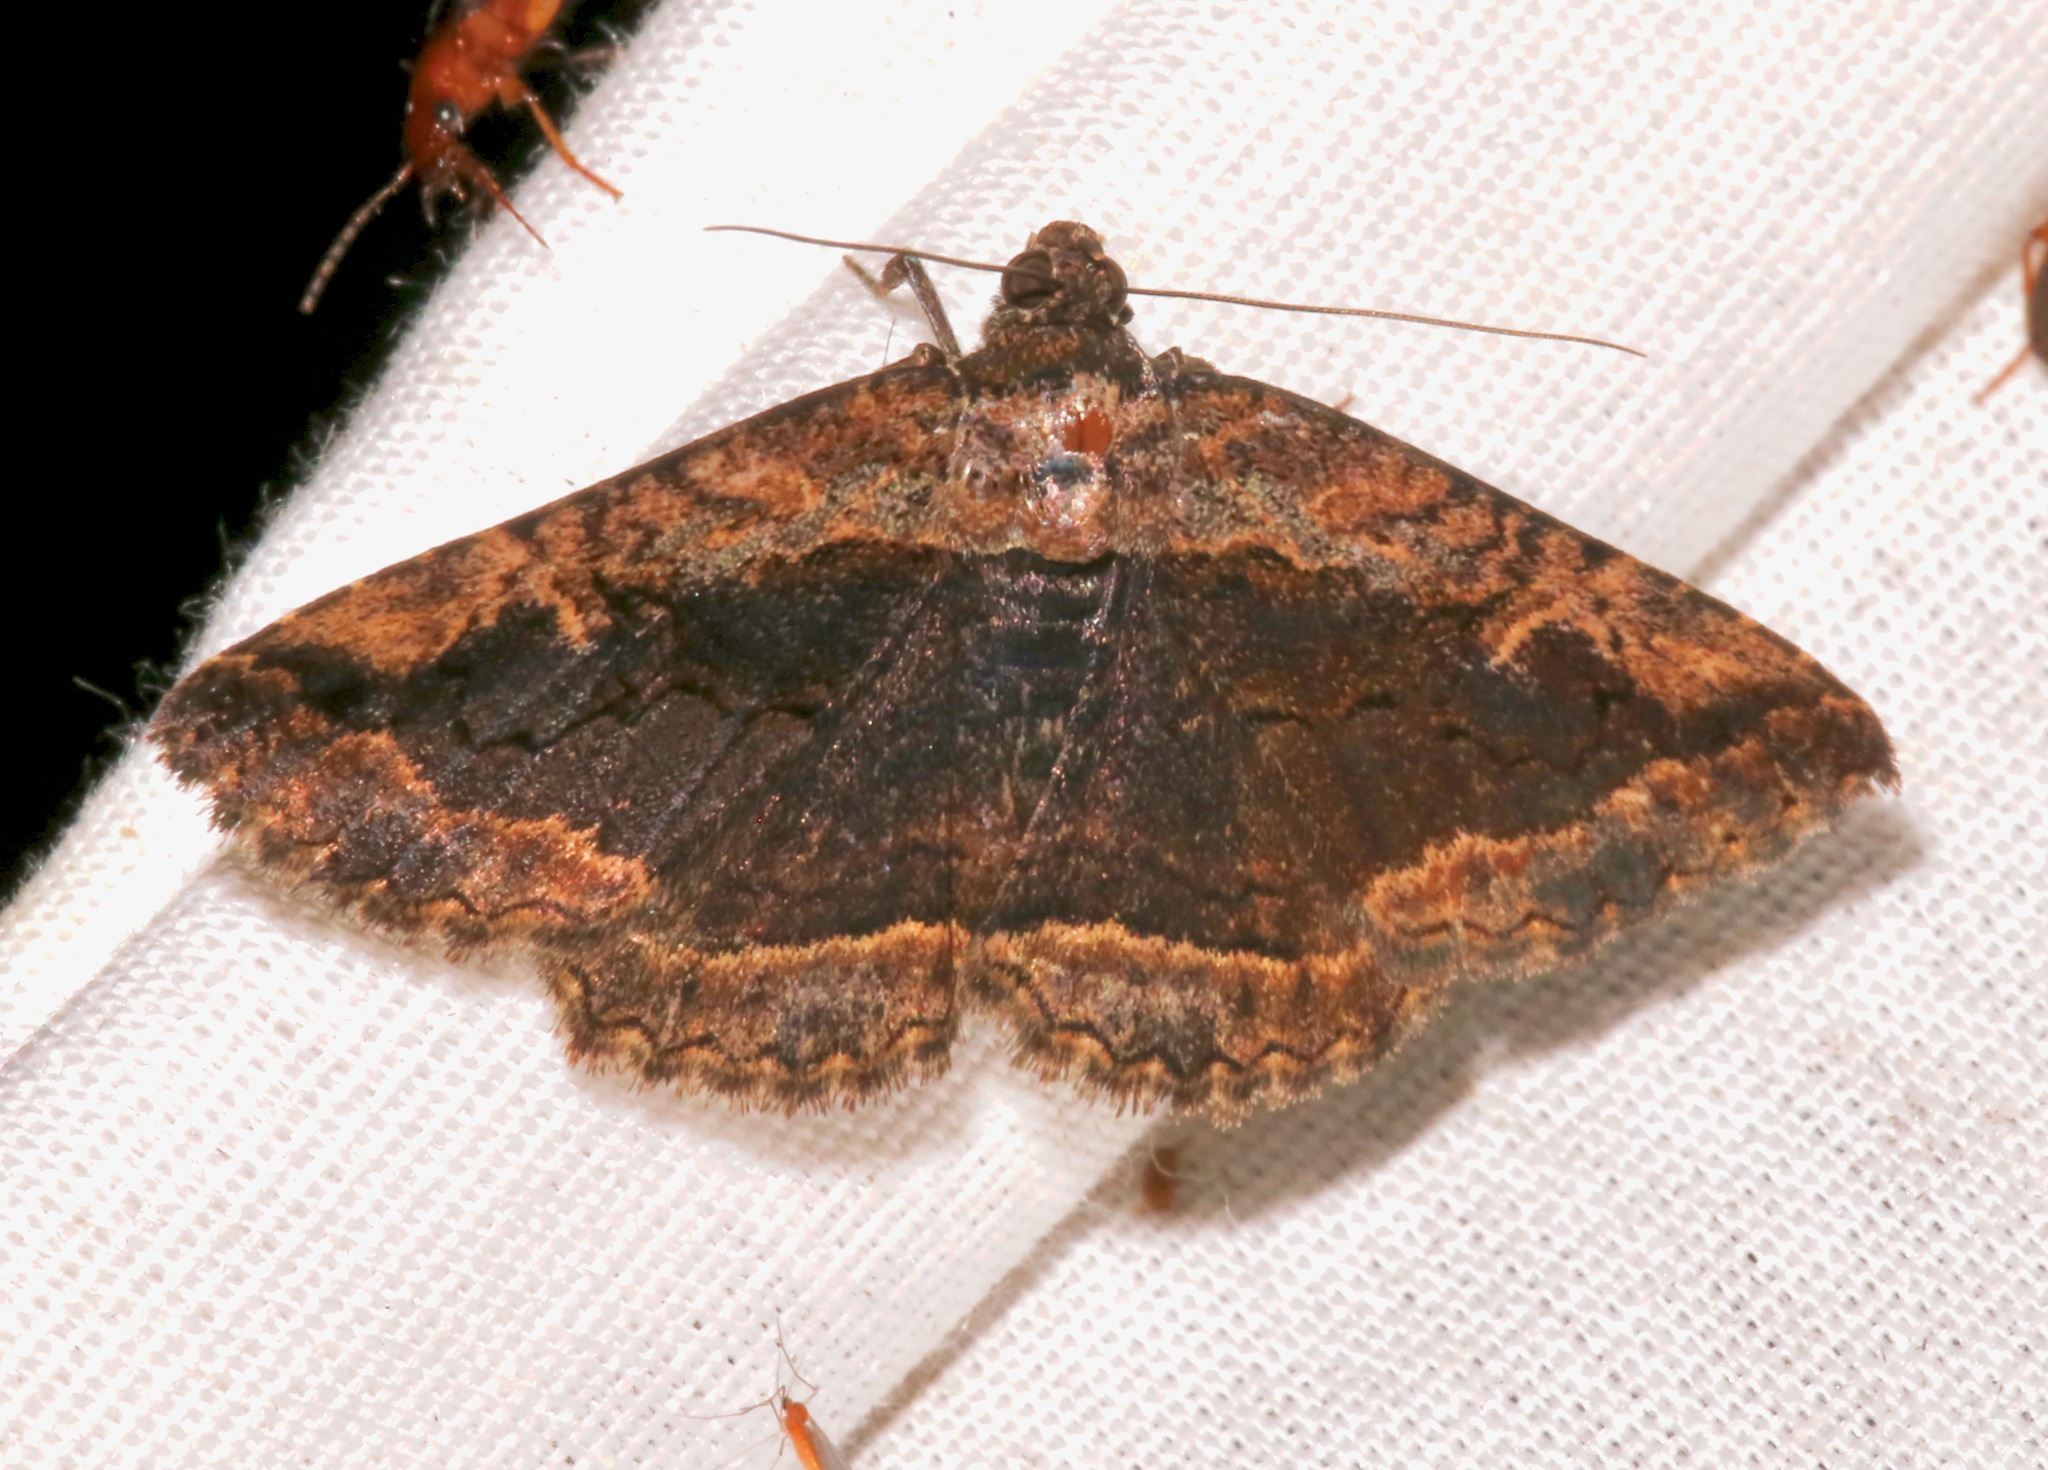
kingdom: Animalia
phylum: Arthropoda
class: Insecta
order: Lepidoptera
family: Erebidae
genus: Zaleops
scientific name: Zaleops umbrina
